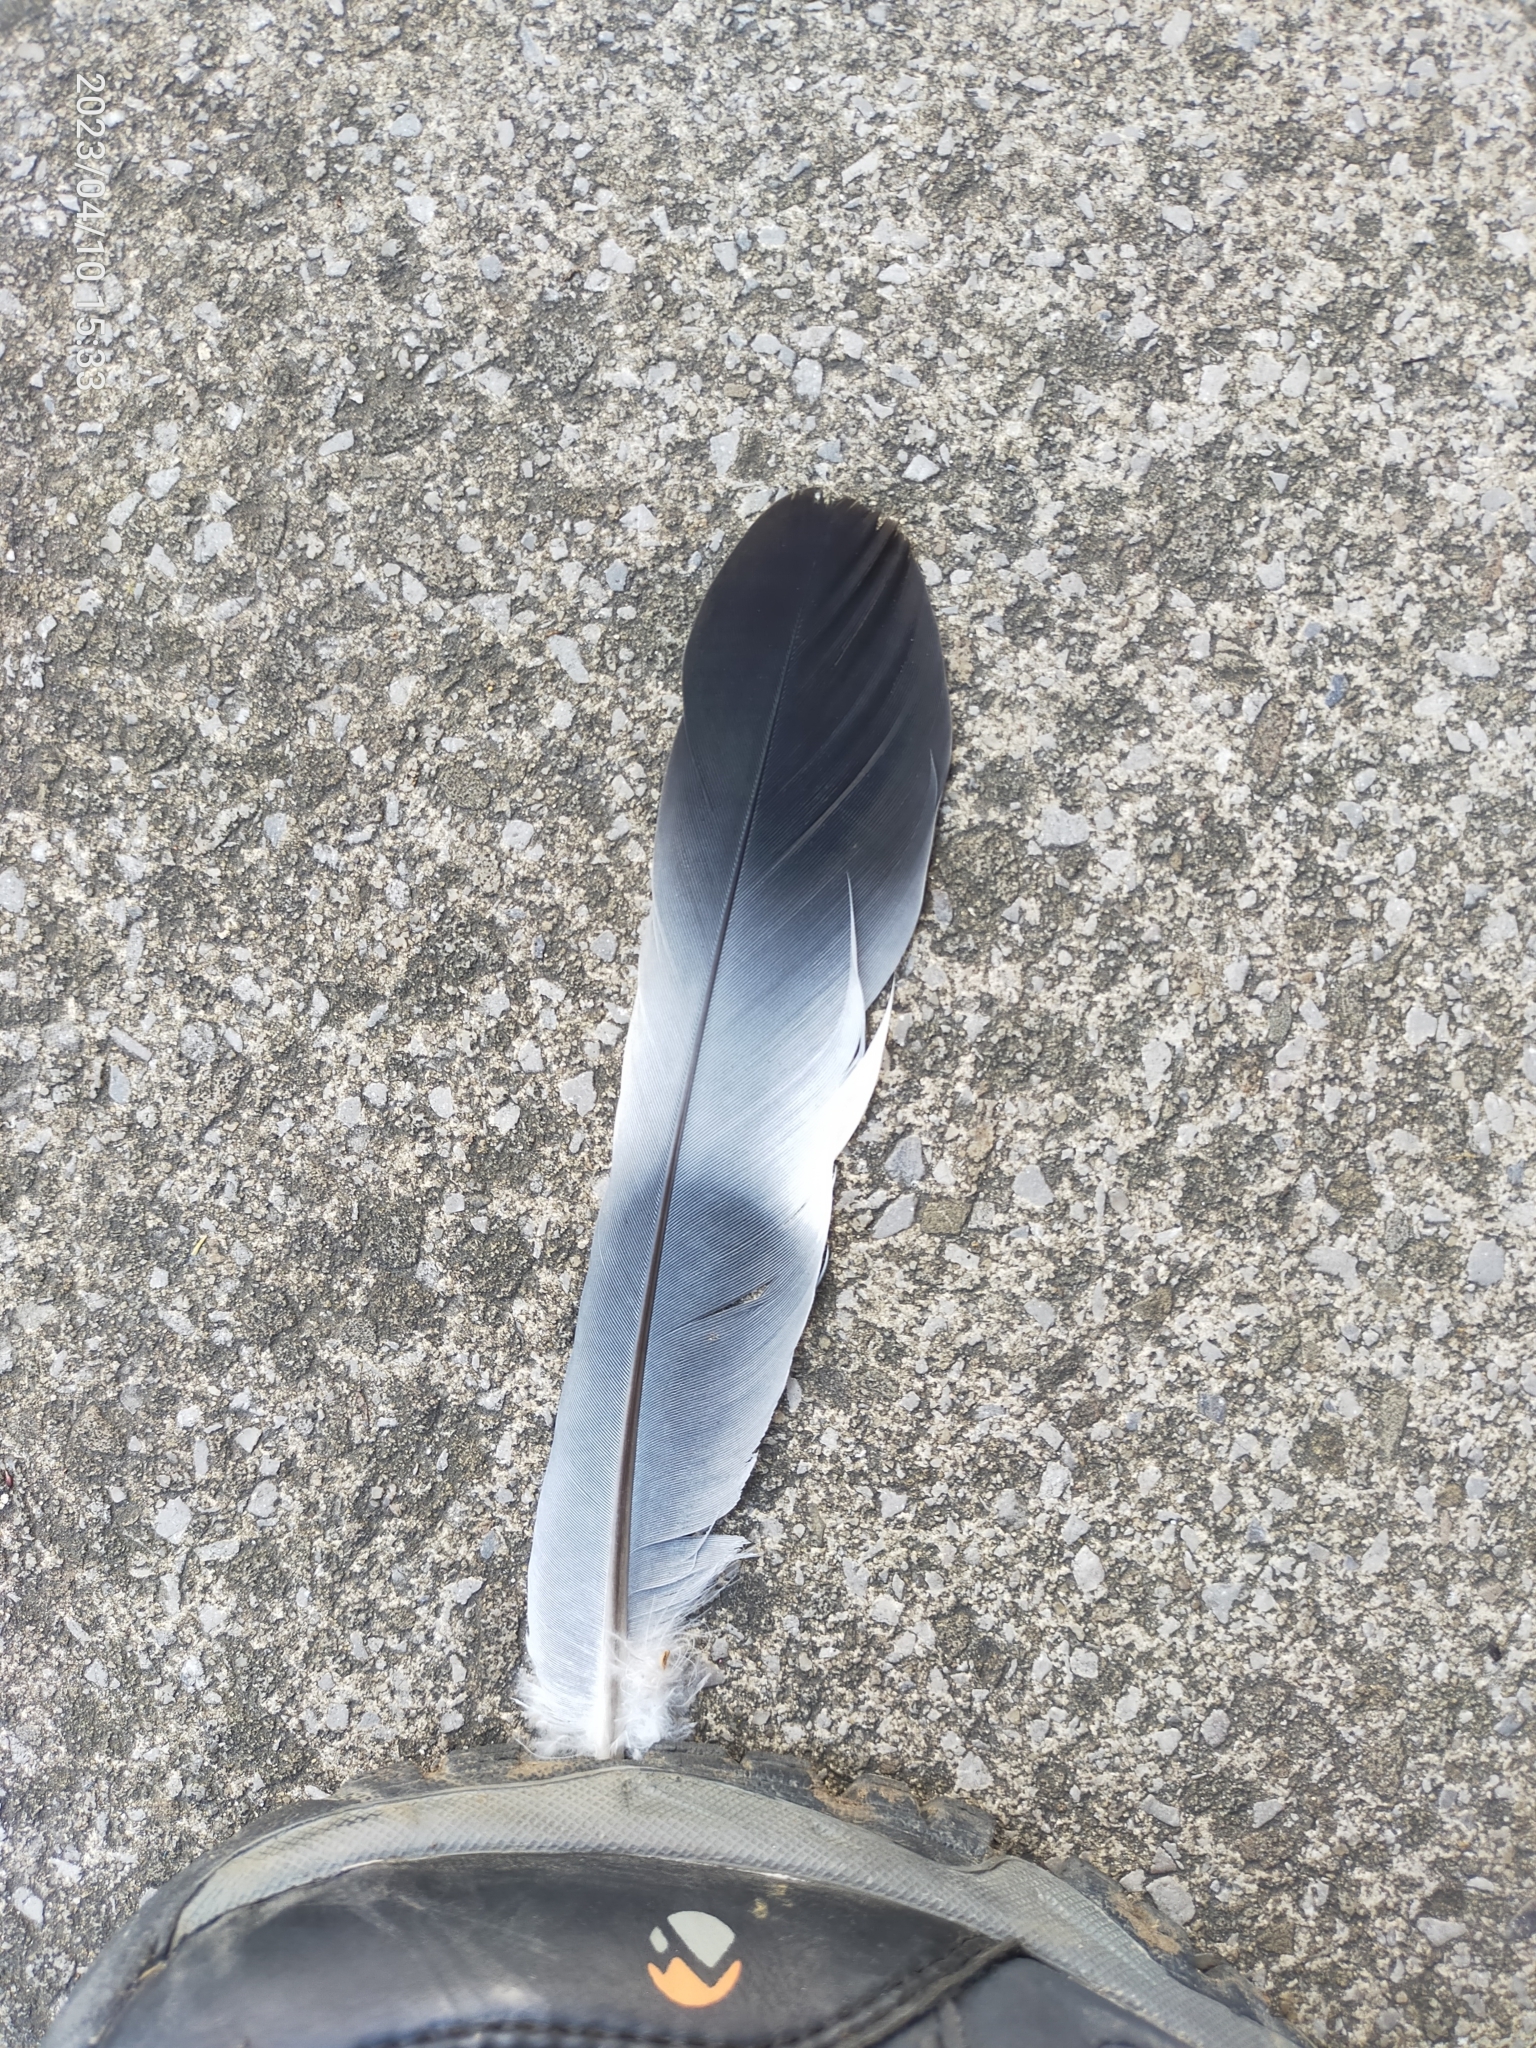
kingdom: Animalia
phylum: Chordata
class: Aves
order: Columbiformes
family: Columbidae
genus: Columba
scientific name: Columba palumbus
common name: Common wood pigeon
